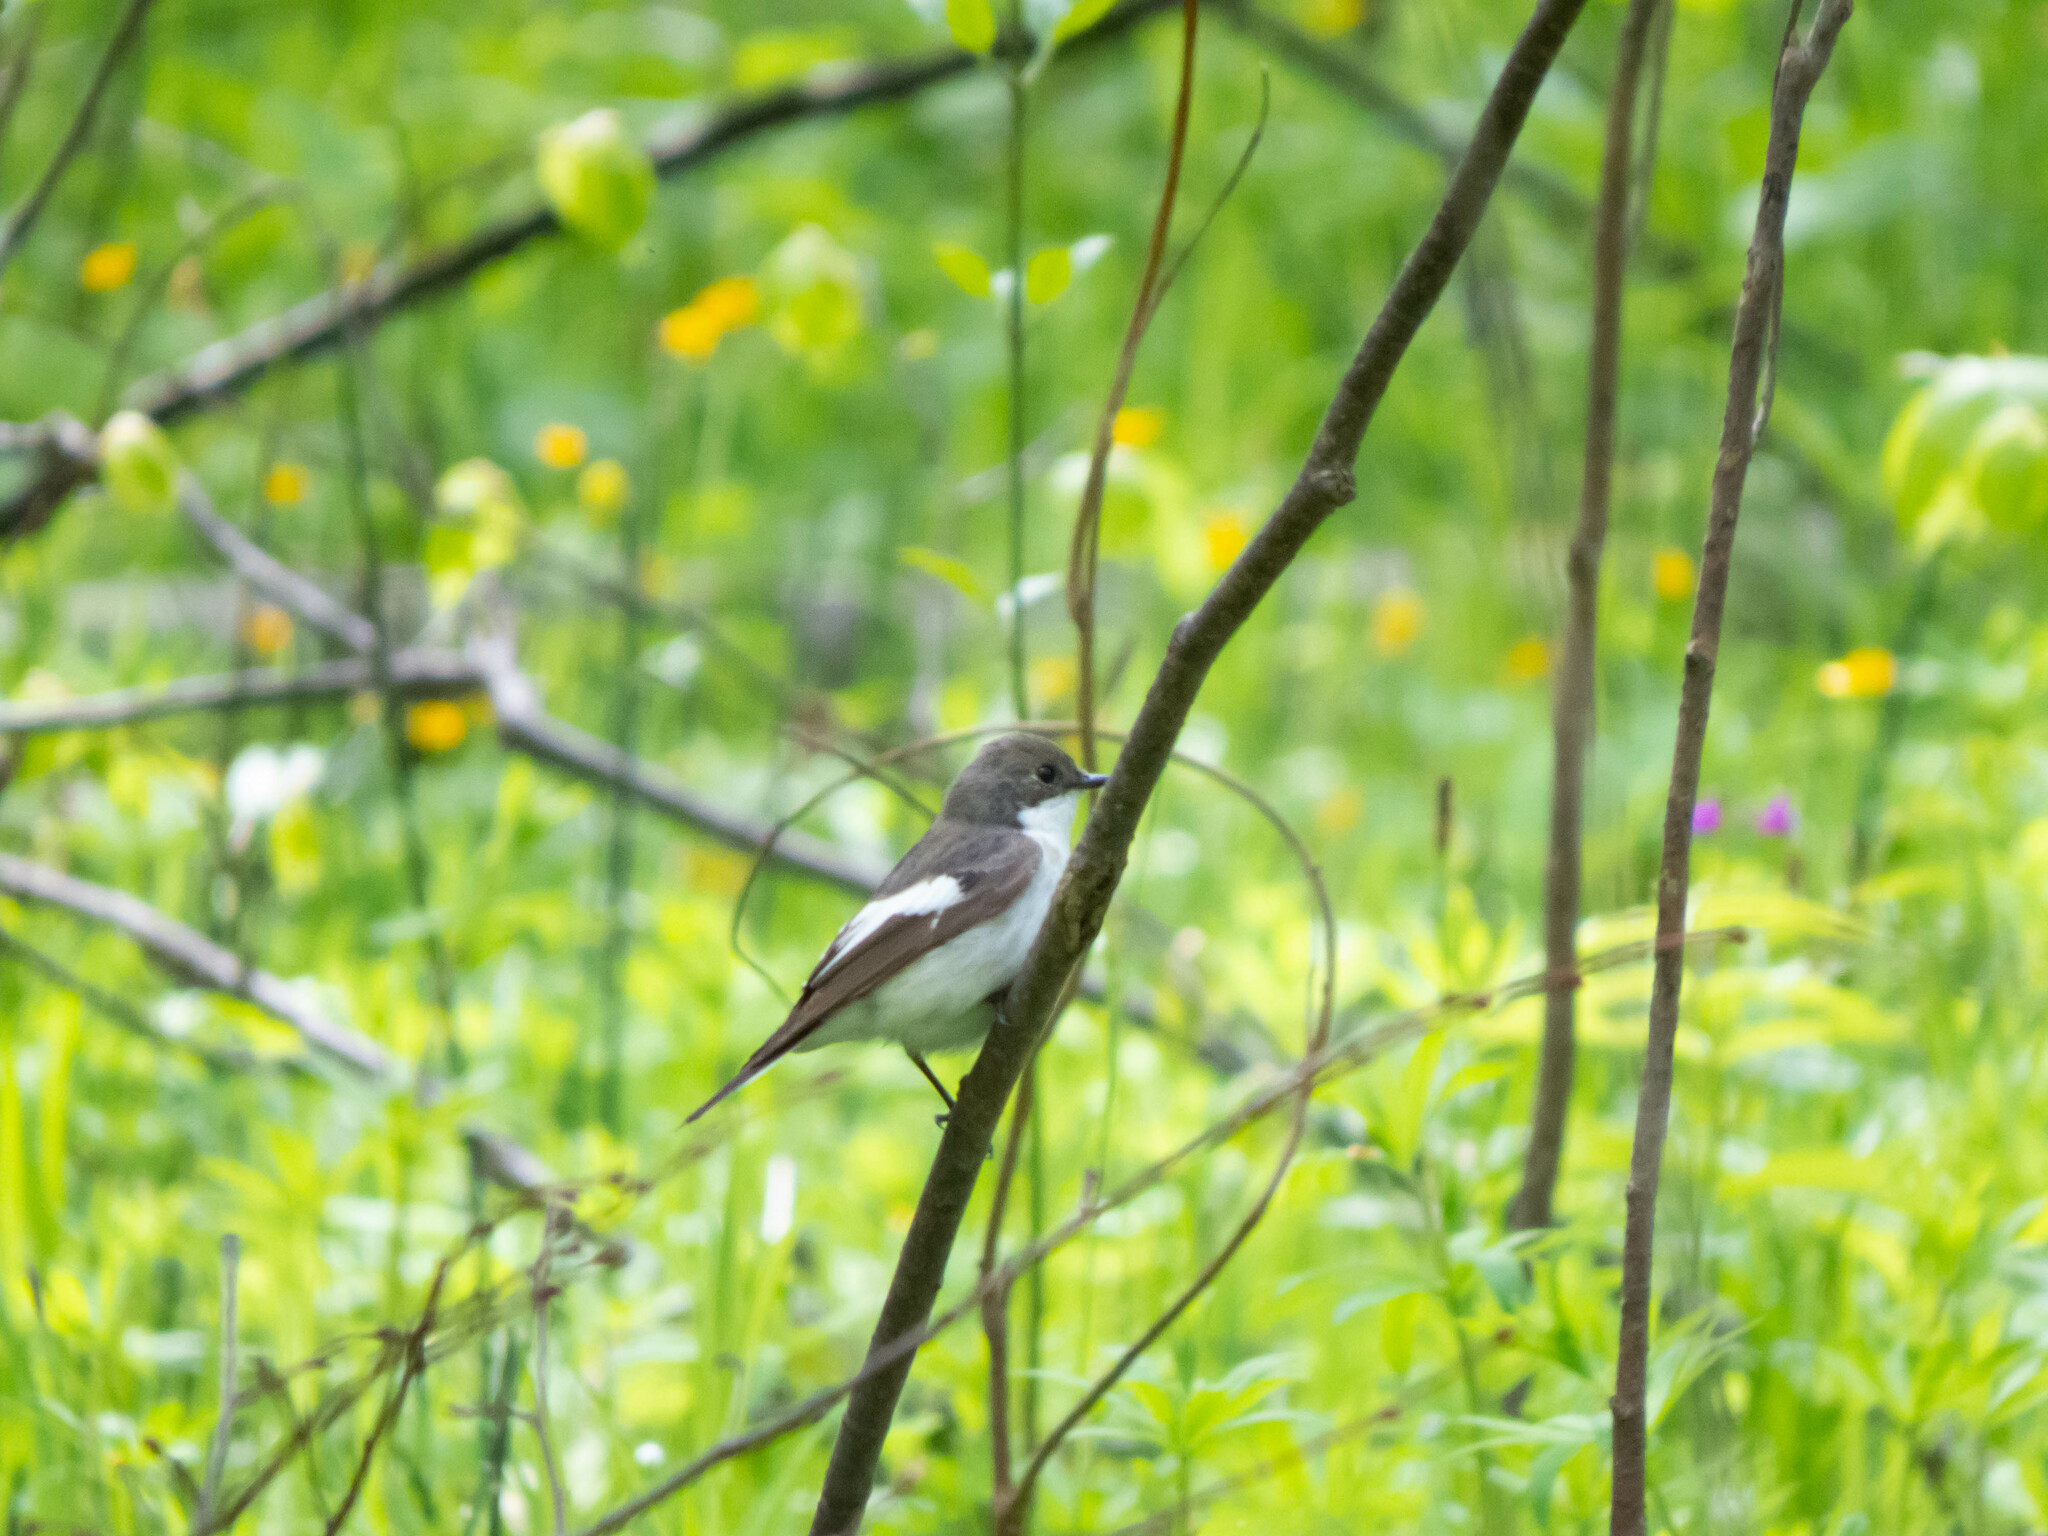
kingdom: Animalia
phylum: Chordata
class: Aves
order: Passeriformes
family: Muscicapidae
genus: Ficedula
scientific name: Ficedula hypoleuca
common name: European pied flycatcher
